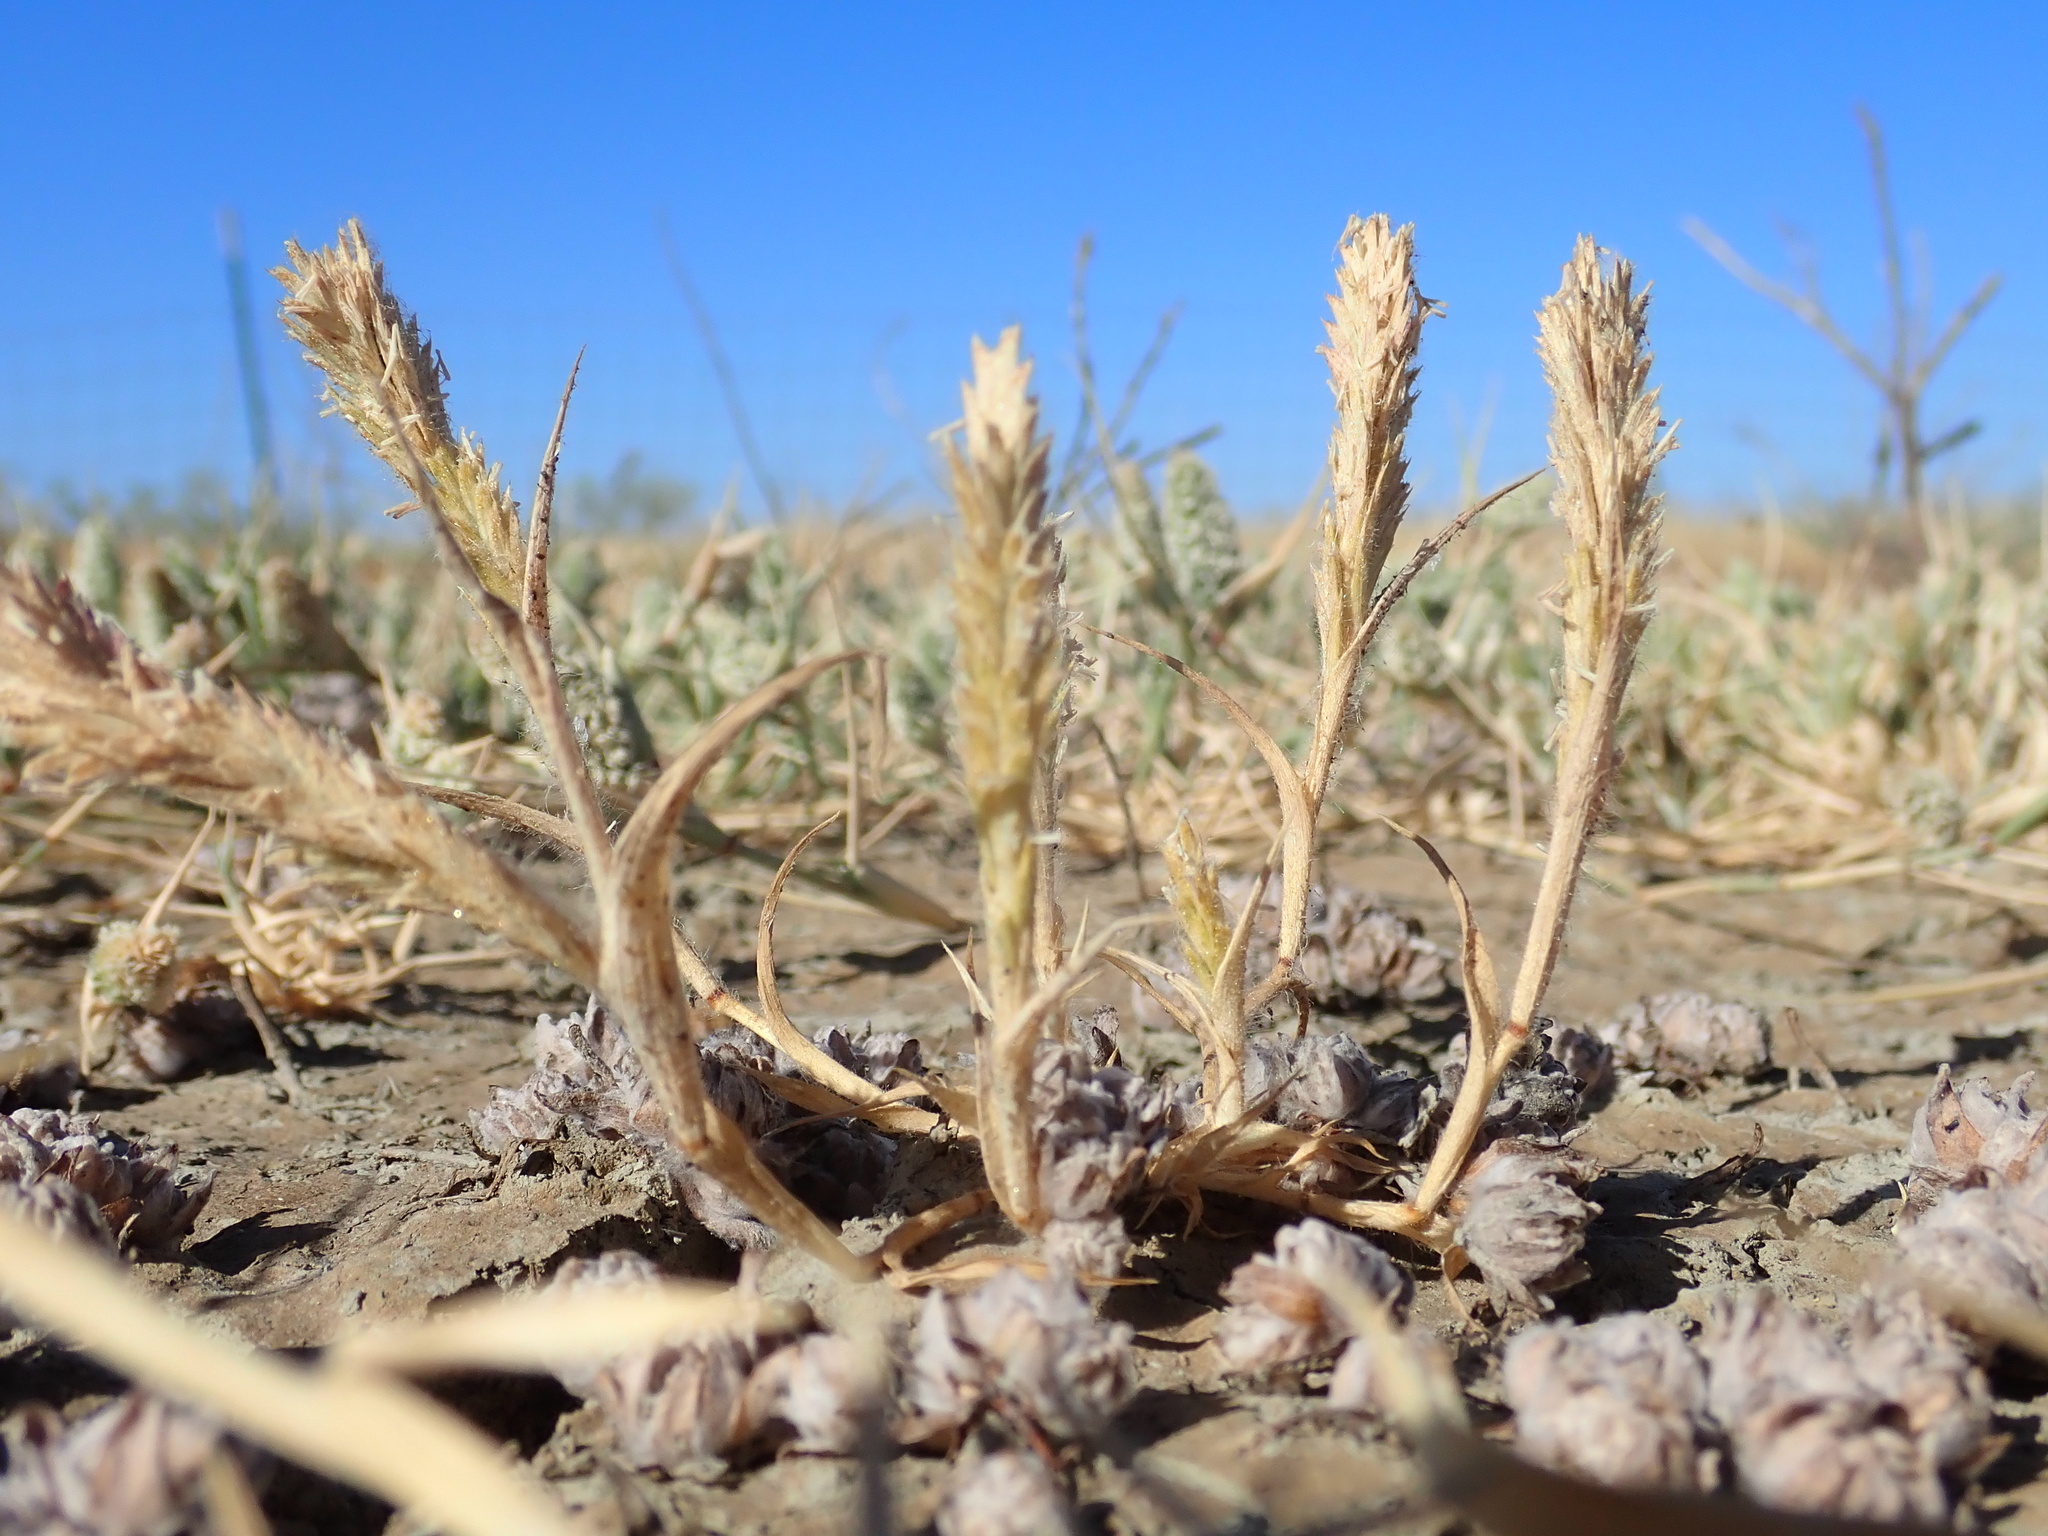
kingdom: Plantae
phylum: Tracheophyta
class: Liliopsida
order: Poales
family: Poaceae
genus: Tuctoria
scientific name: Tuctoria mucronata
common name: Solano grass
